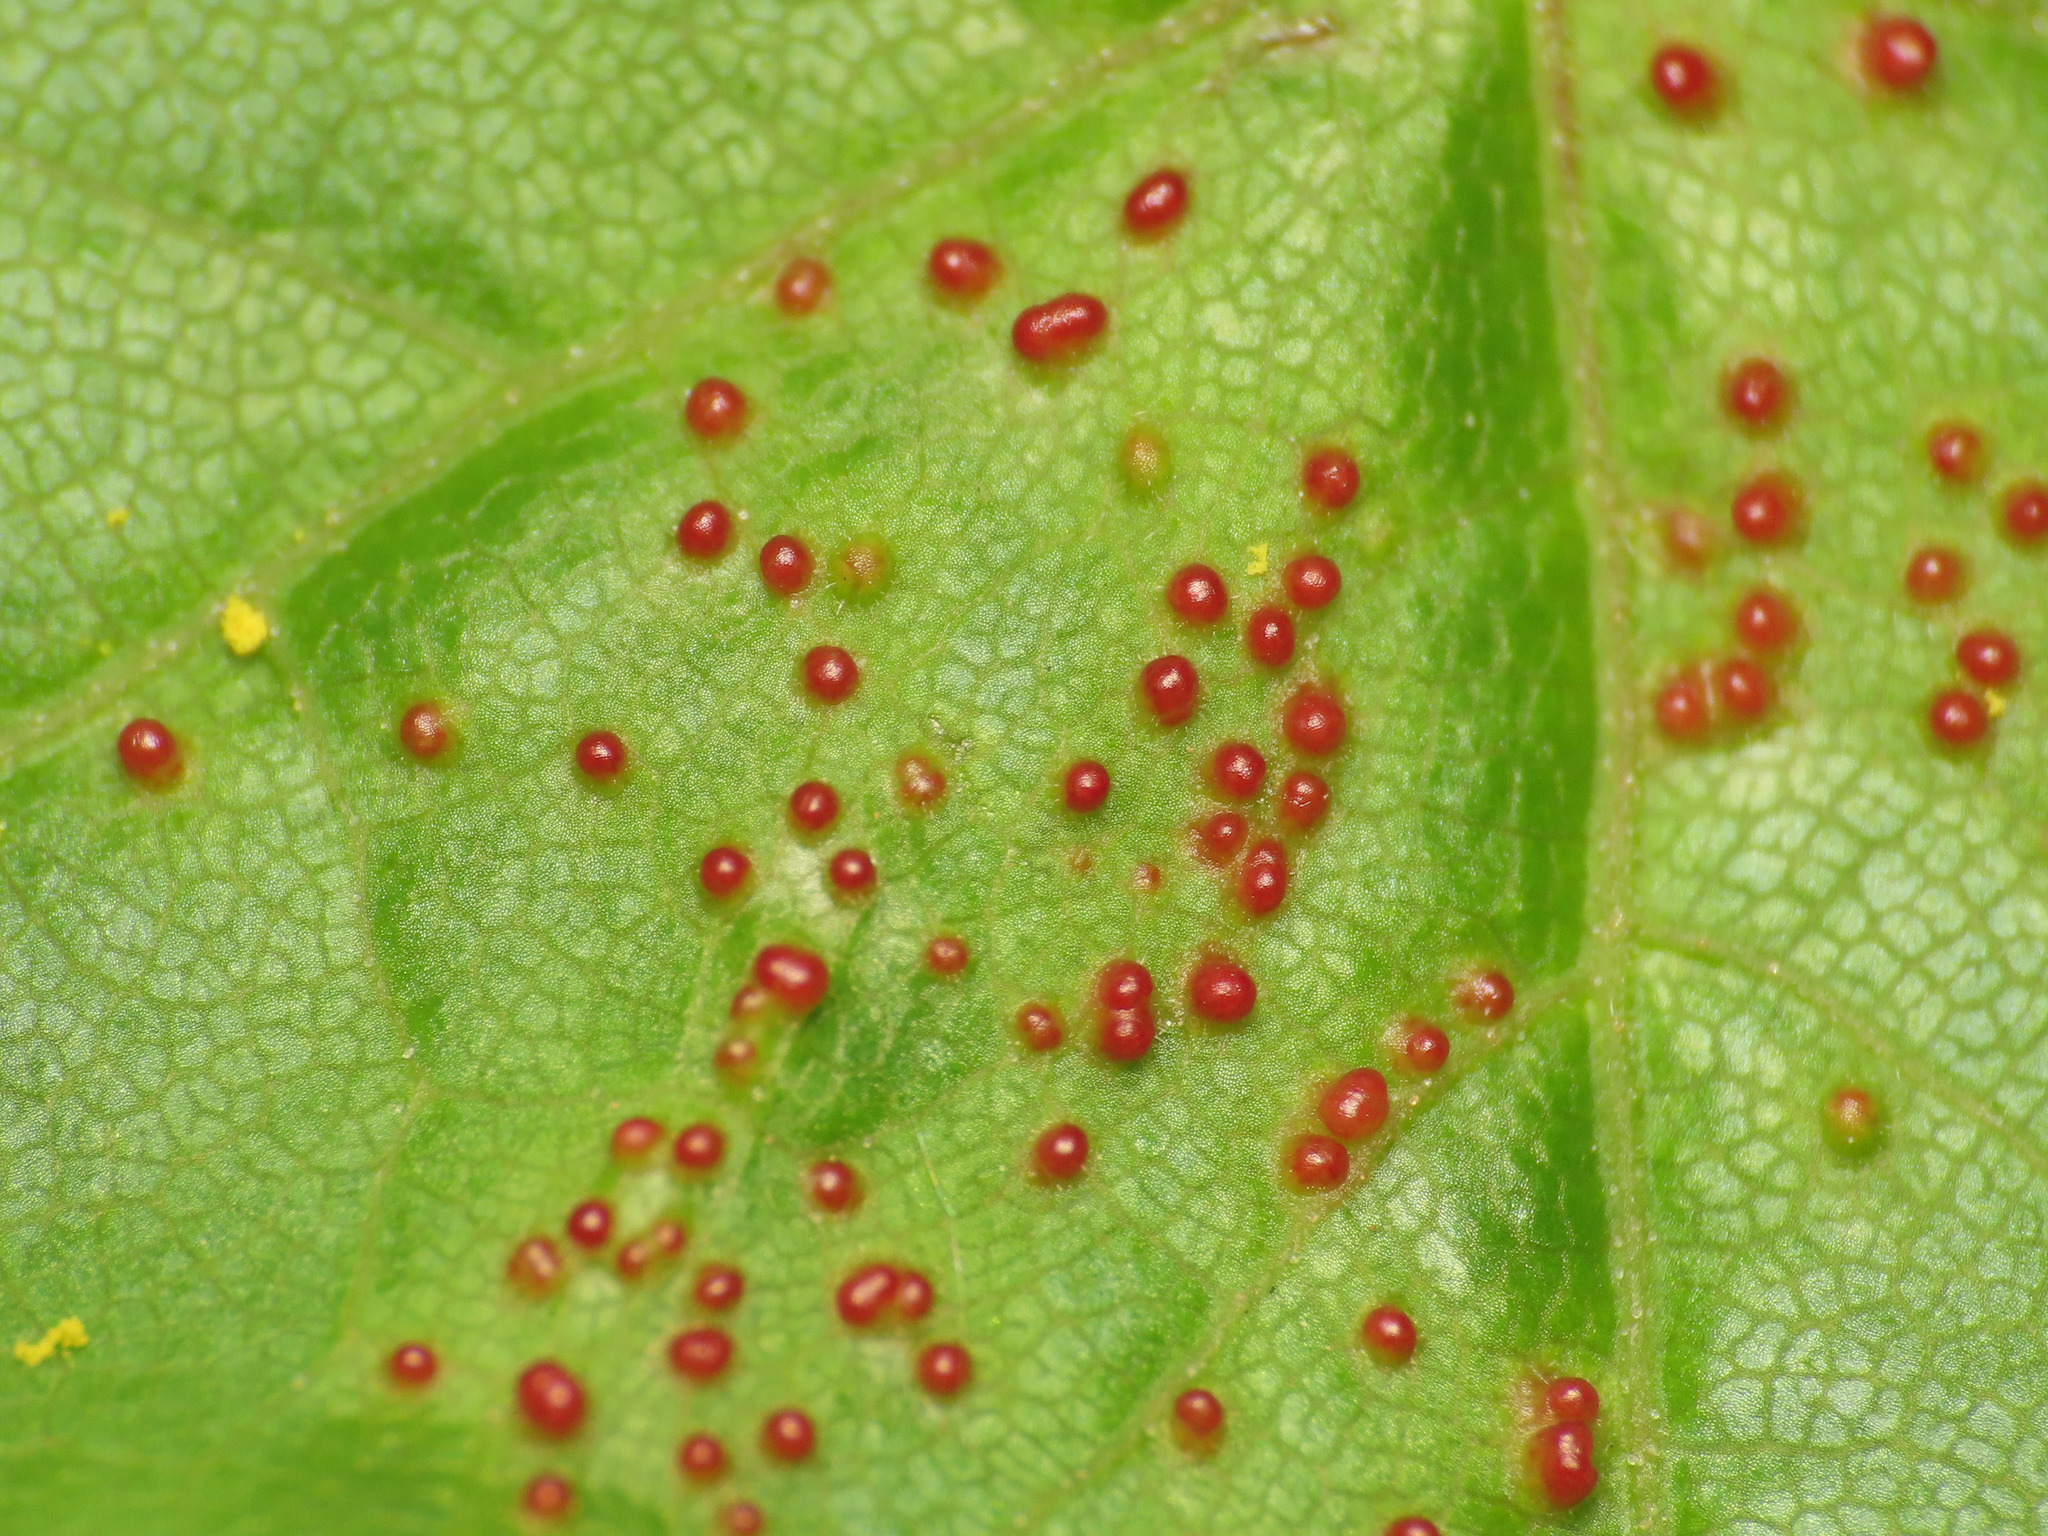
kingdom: Animalia
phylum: Arthropoda
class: Arachnida
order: Trombidiformes
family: Eriophyidae
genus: Aceria
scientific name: Aceria myriadeum
